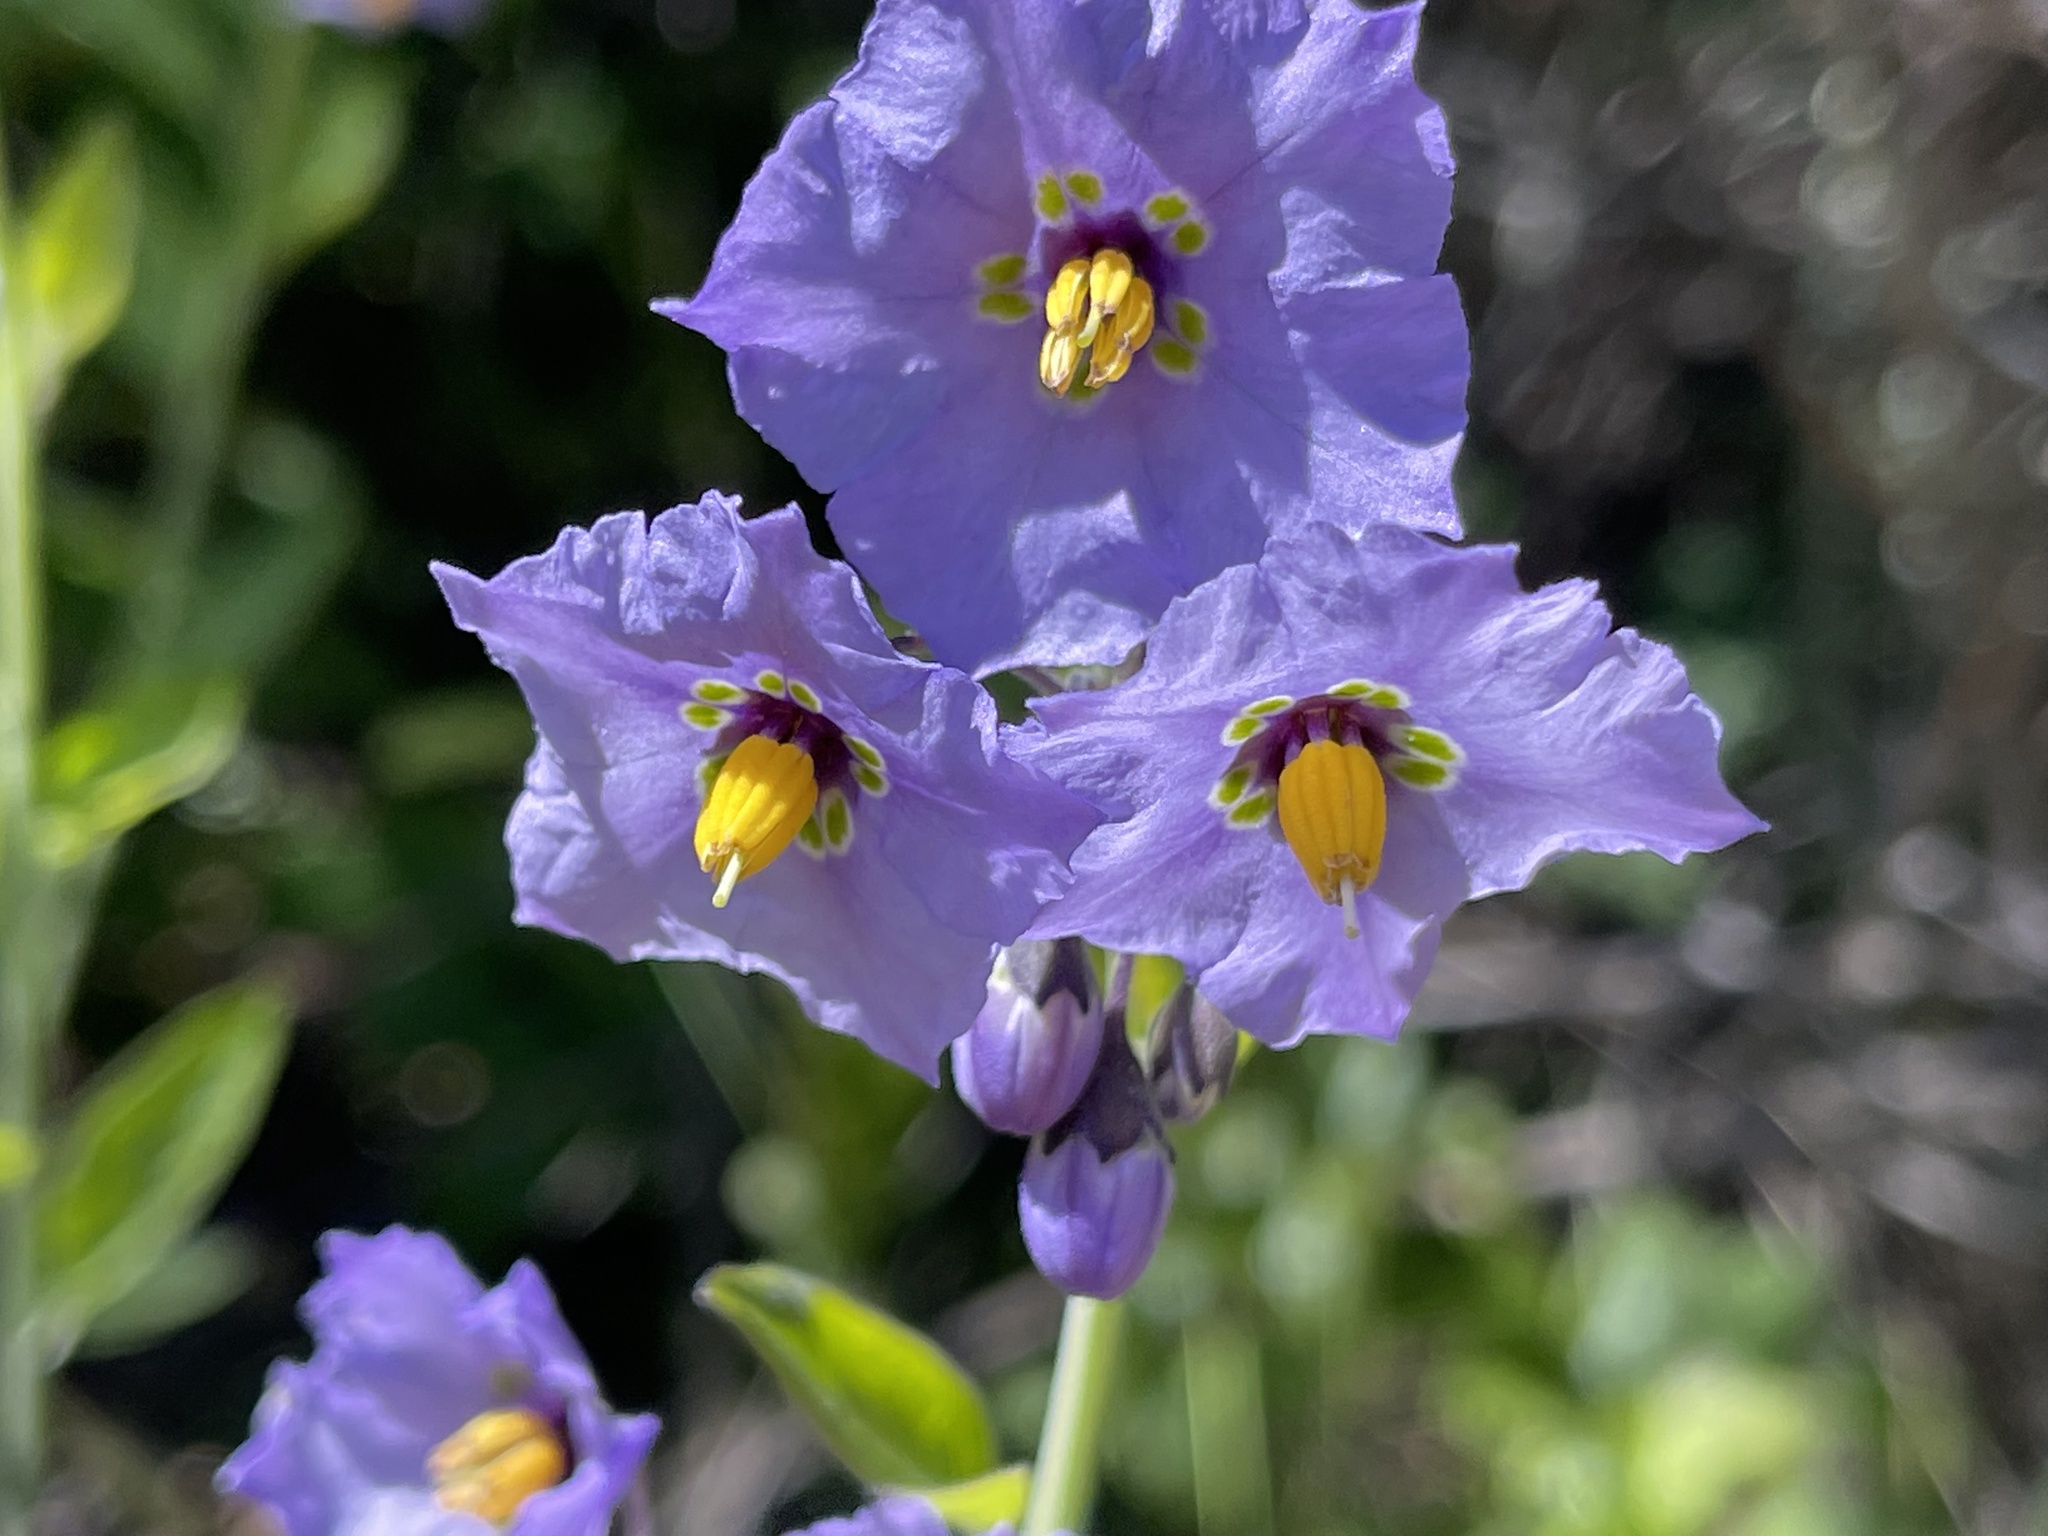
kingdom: Plantae
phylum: Tracheophyta
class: Magnoliopsida
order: Solanales
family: Solanaceae
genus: Solanum
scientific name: Solanum umbelliferum
